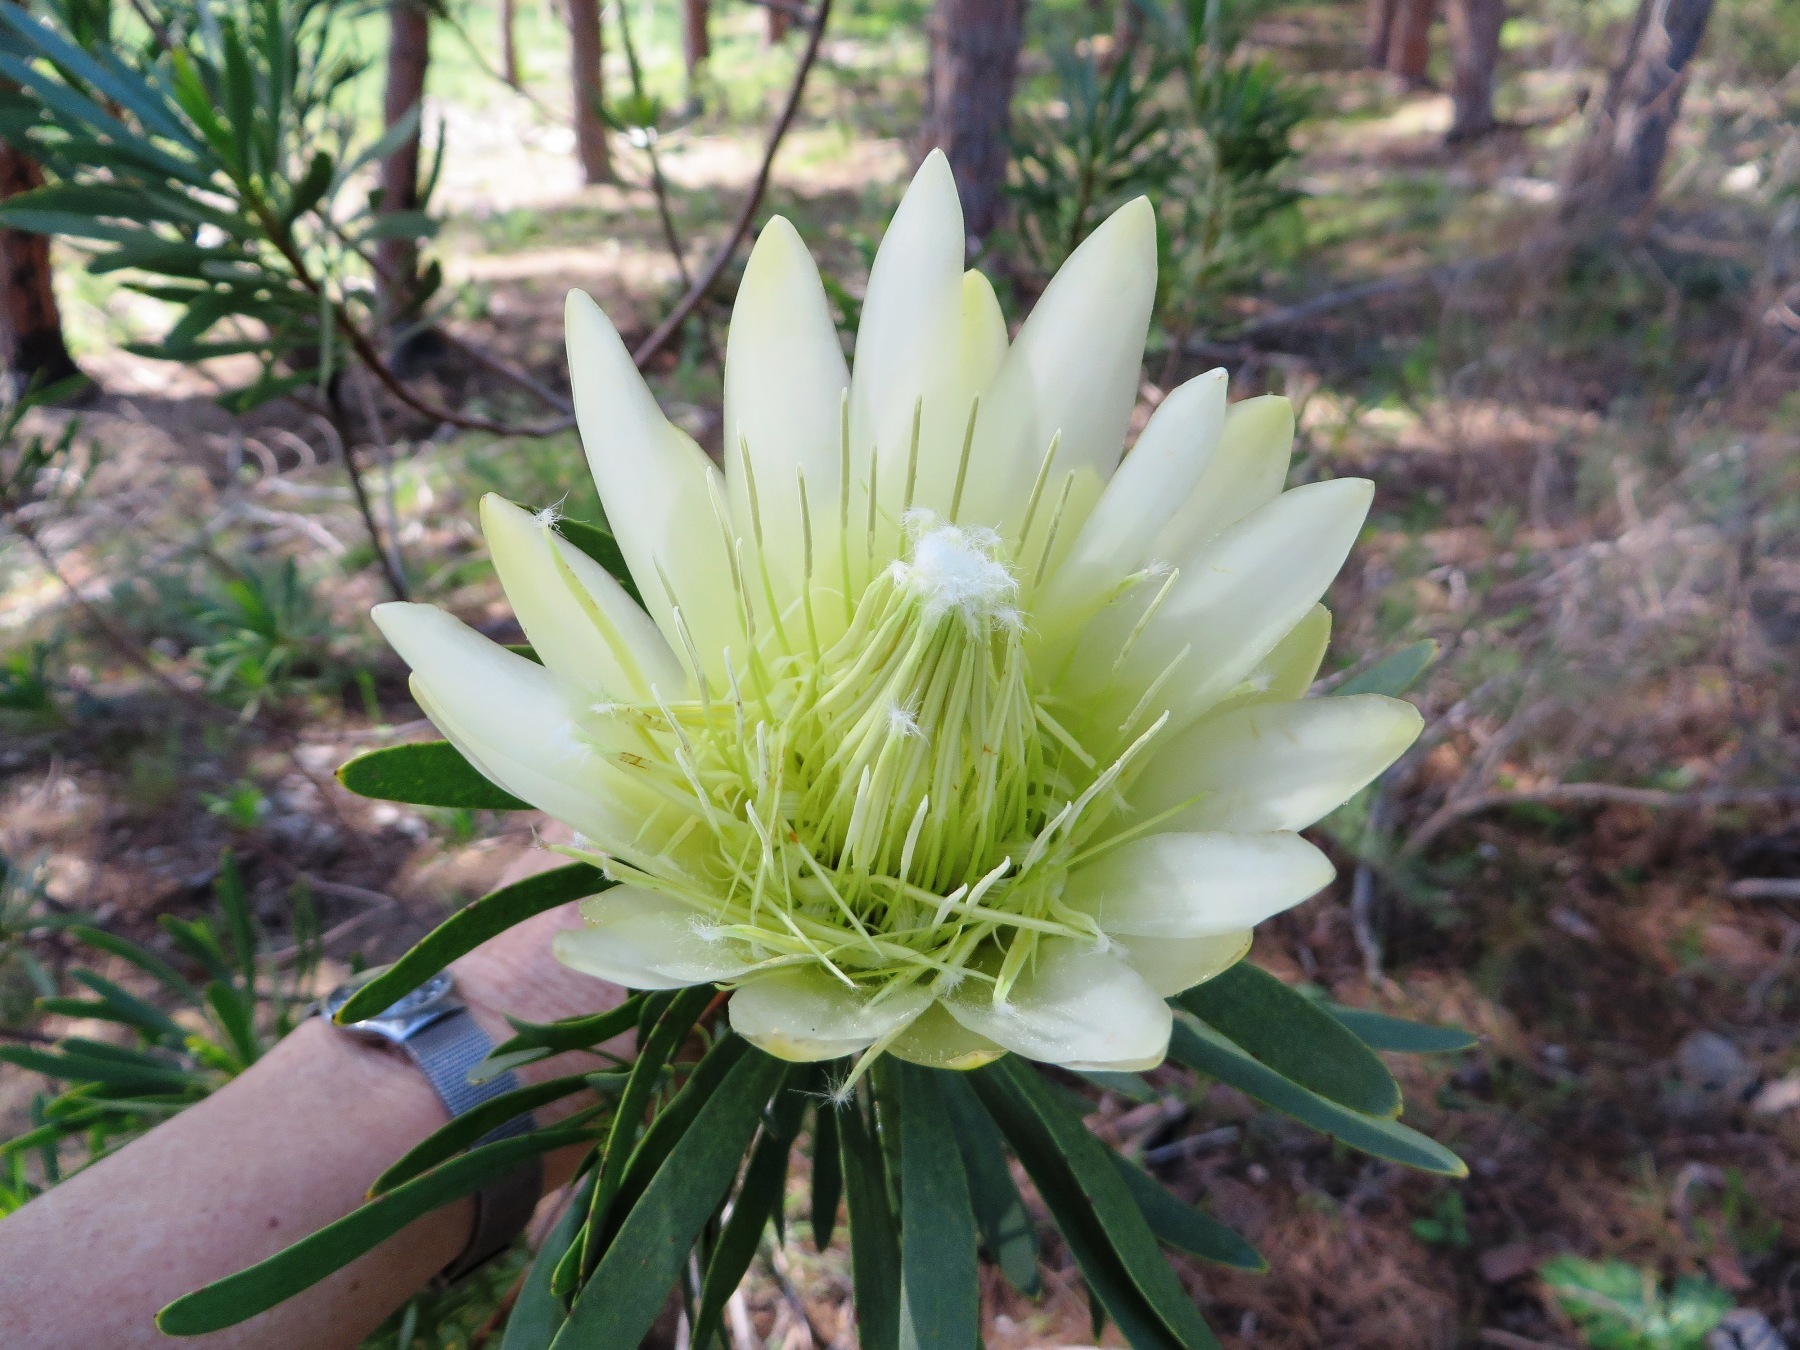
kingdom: Plantae
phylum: Tracheophyta
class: Magnoliopsida
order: Proteales
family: Proteaceae
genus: Protea
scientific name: Protea repens
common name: Sugarbush
